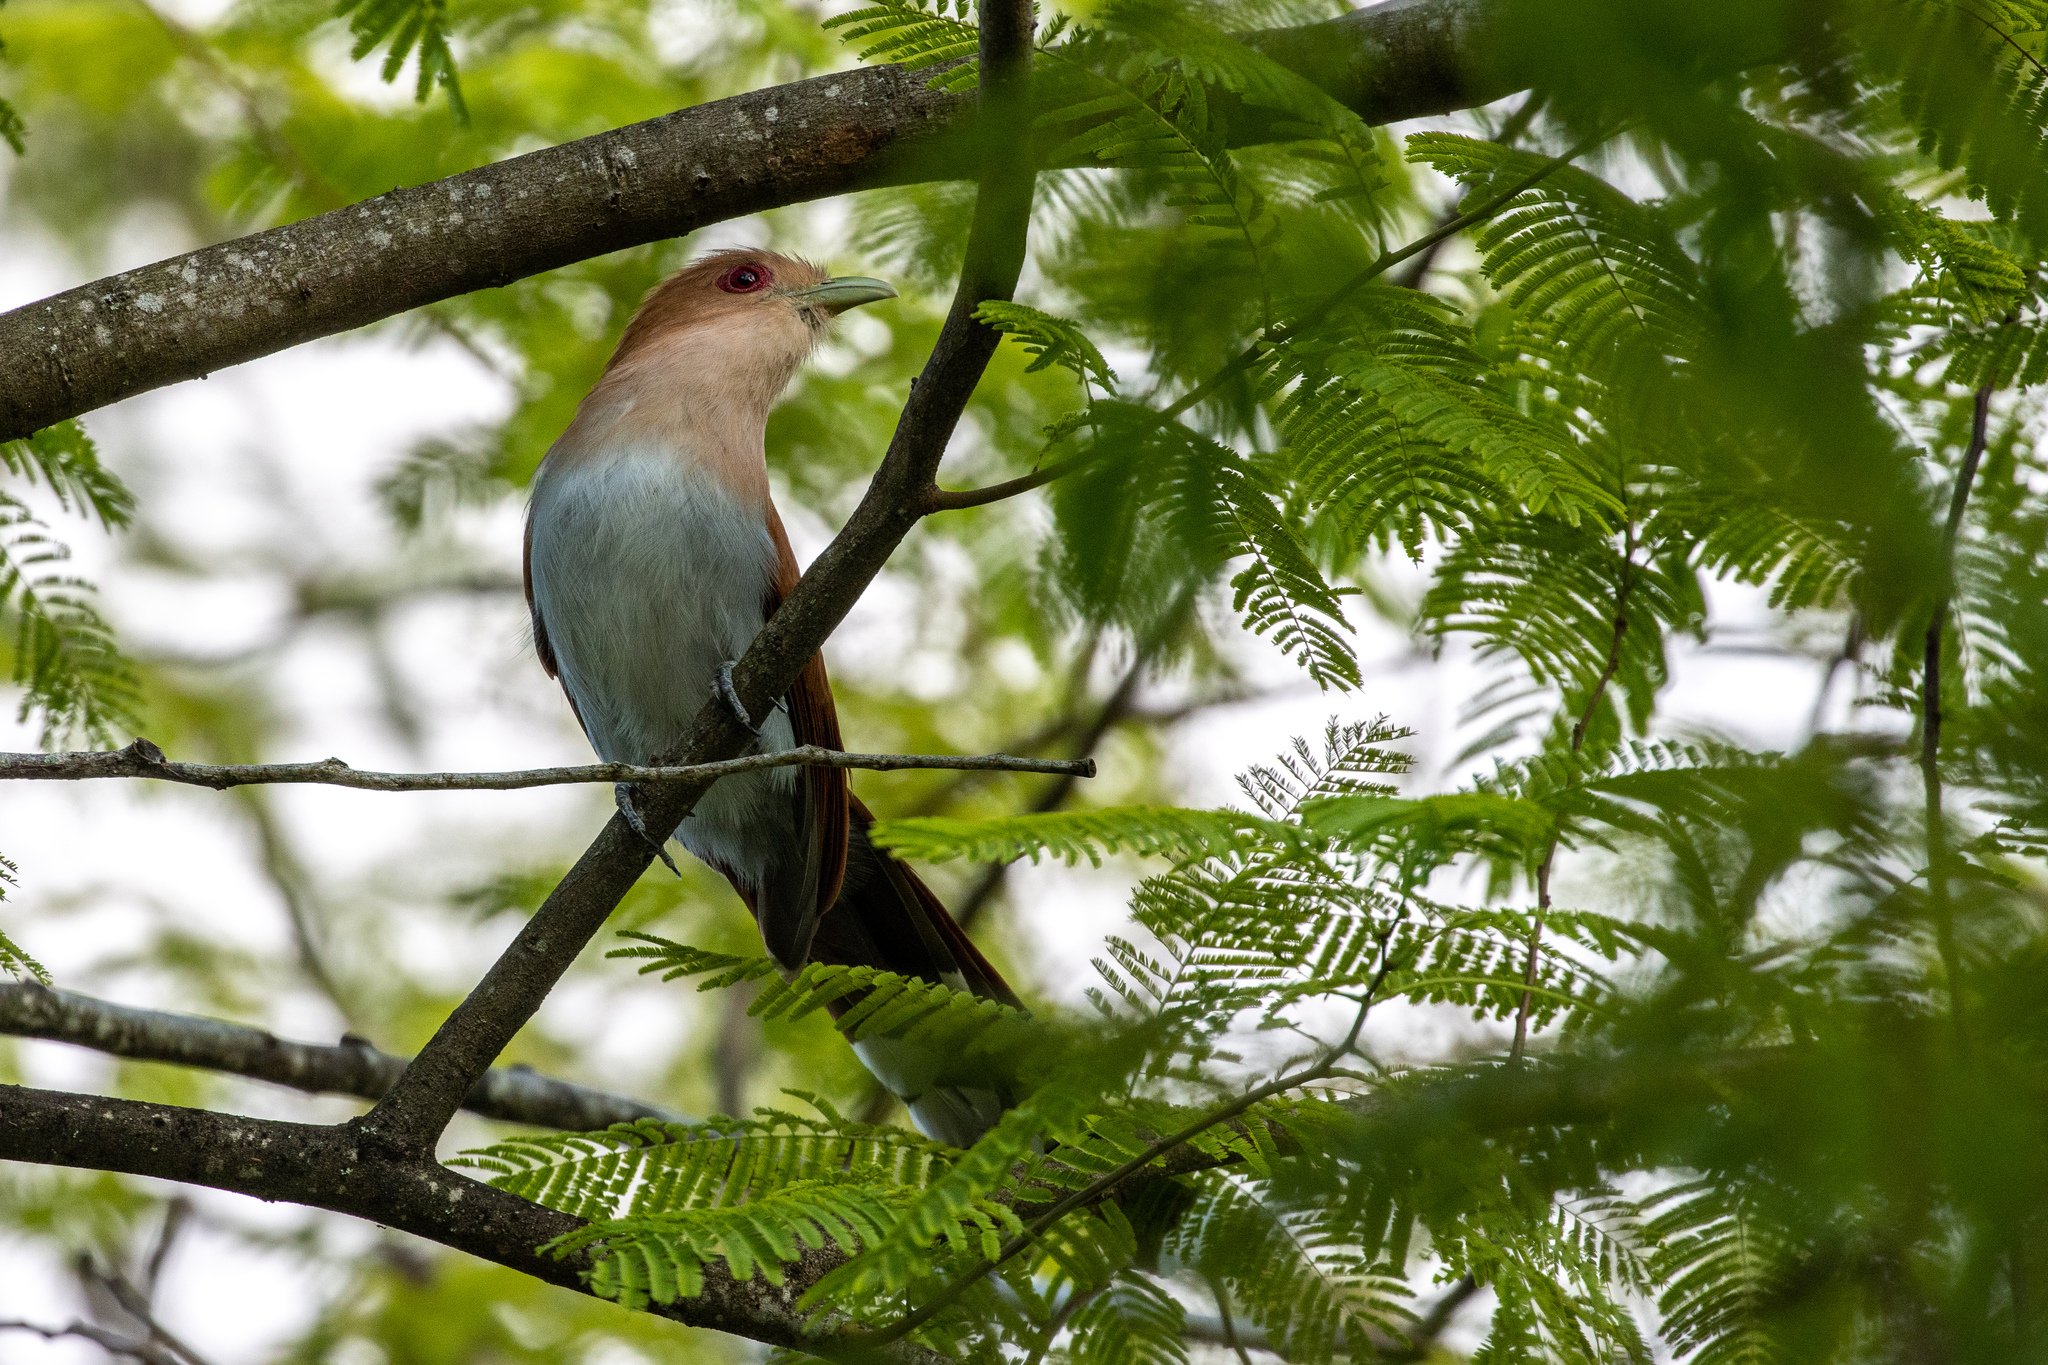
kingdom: Animalia
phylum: Chordata
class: Aves
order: Cuculiformes
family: Cuculidae
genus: Piaya
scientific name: Piaya cayana
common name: Squirrel cuckoo
